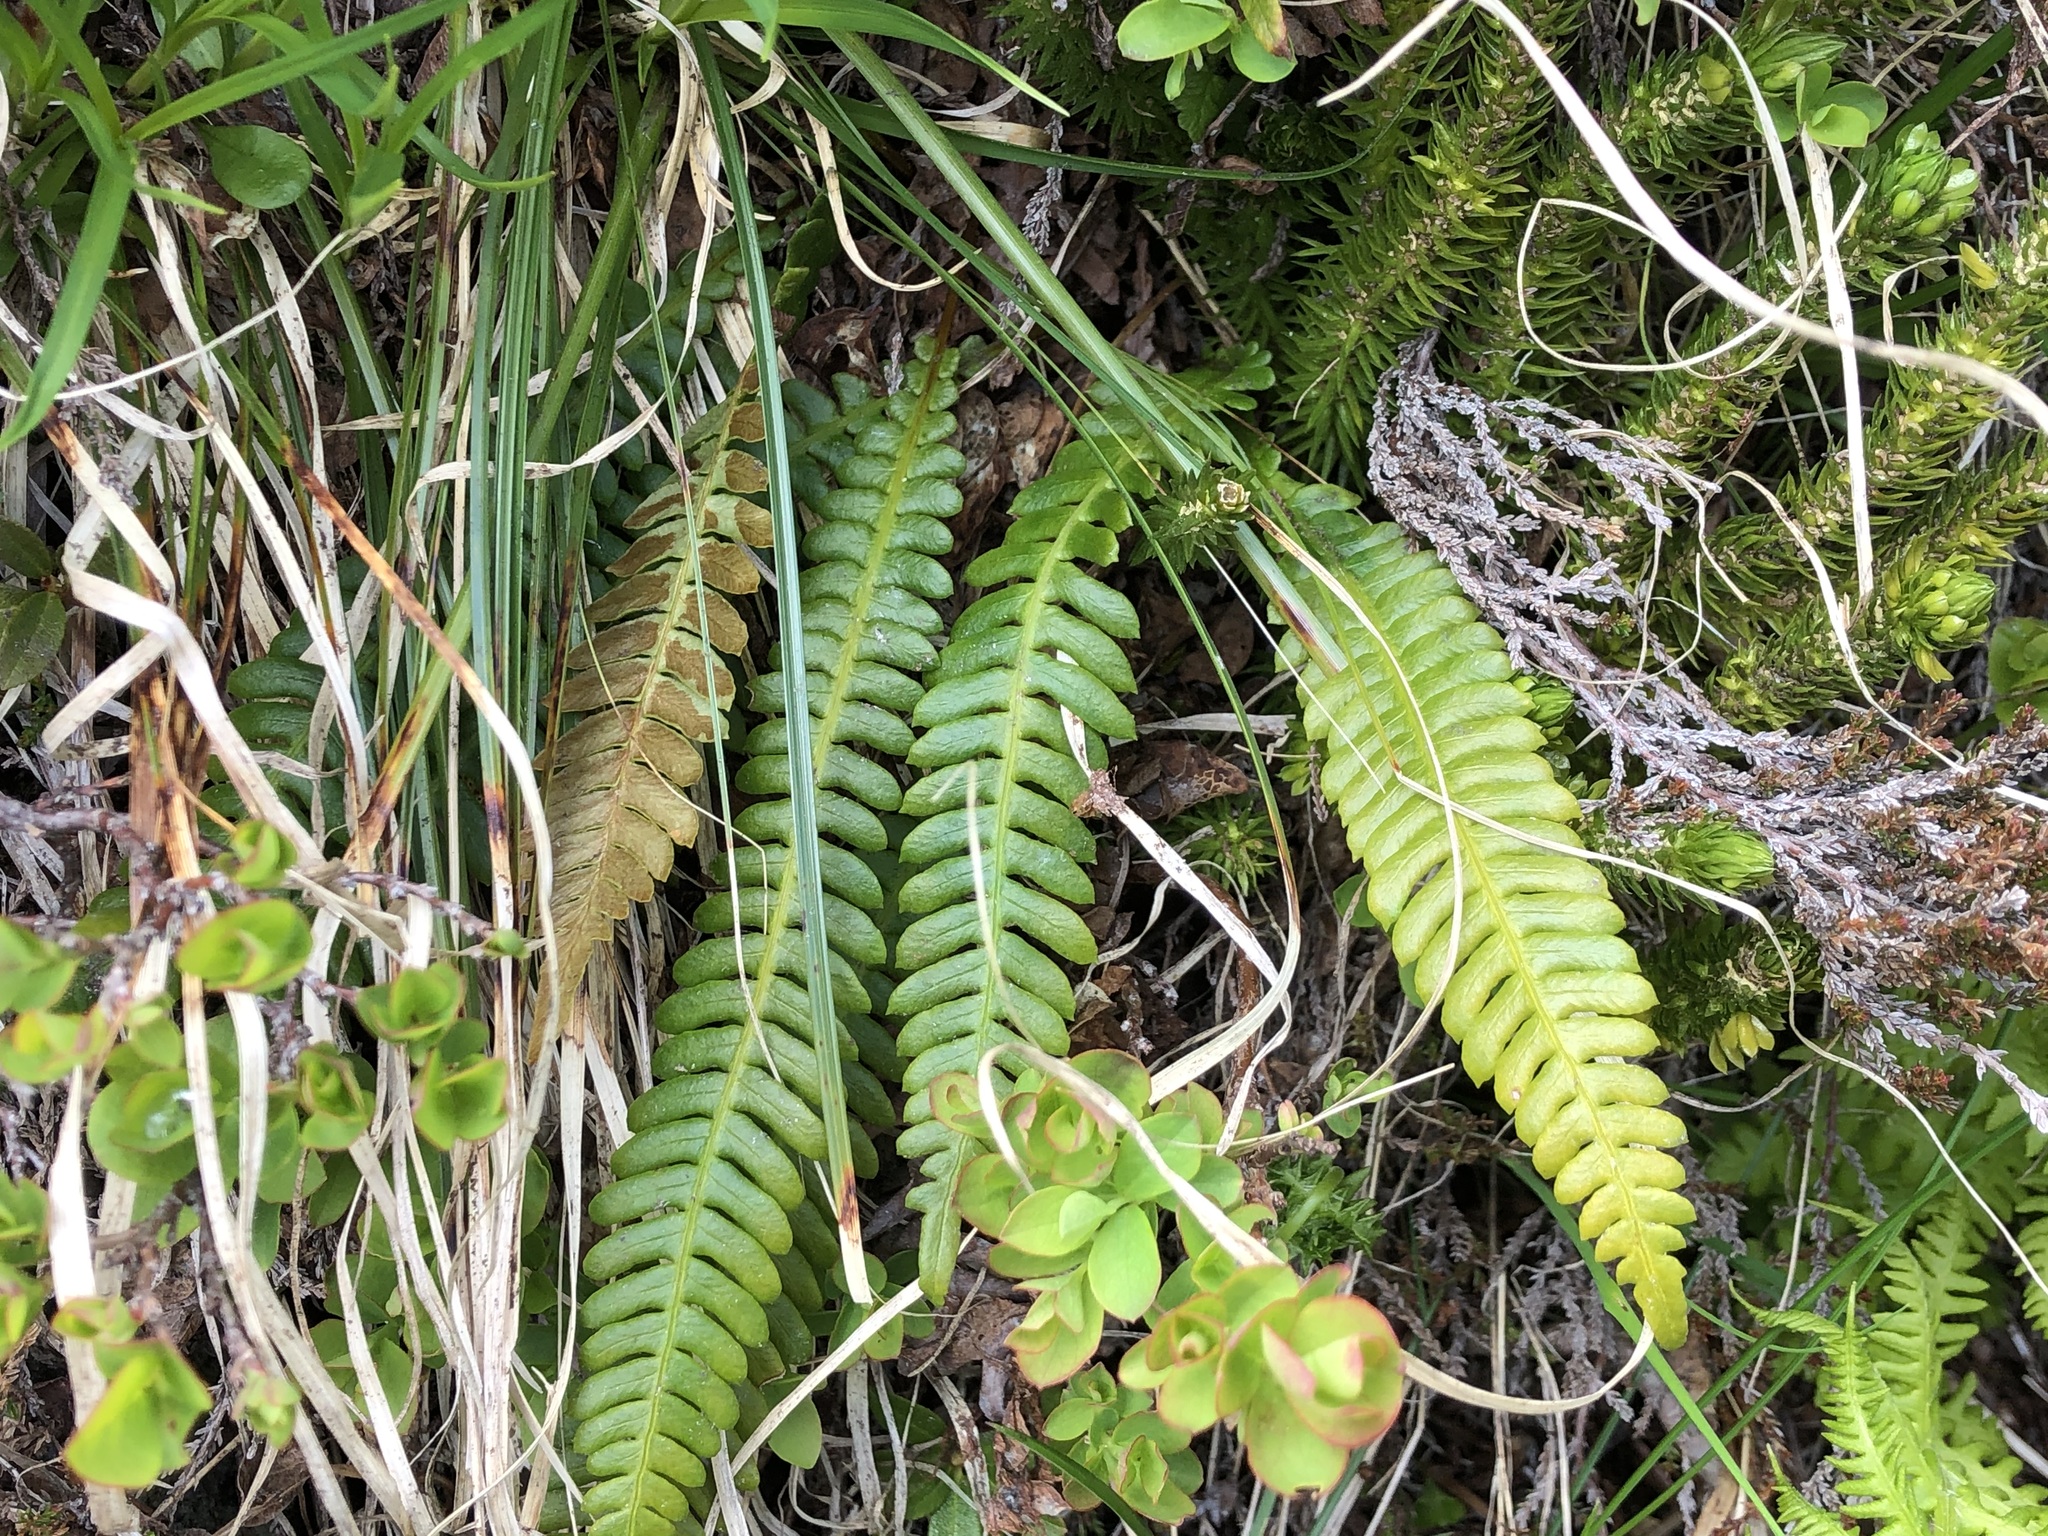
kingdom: Plantae
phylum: Tracheophyta
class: Polypodiopsida
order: Polypodiales
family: Blechnaceae
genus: Struthiopteris
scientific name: Struthiopteris spicant
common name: Deer fern
